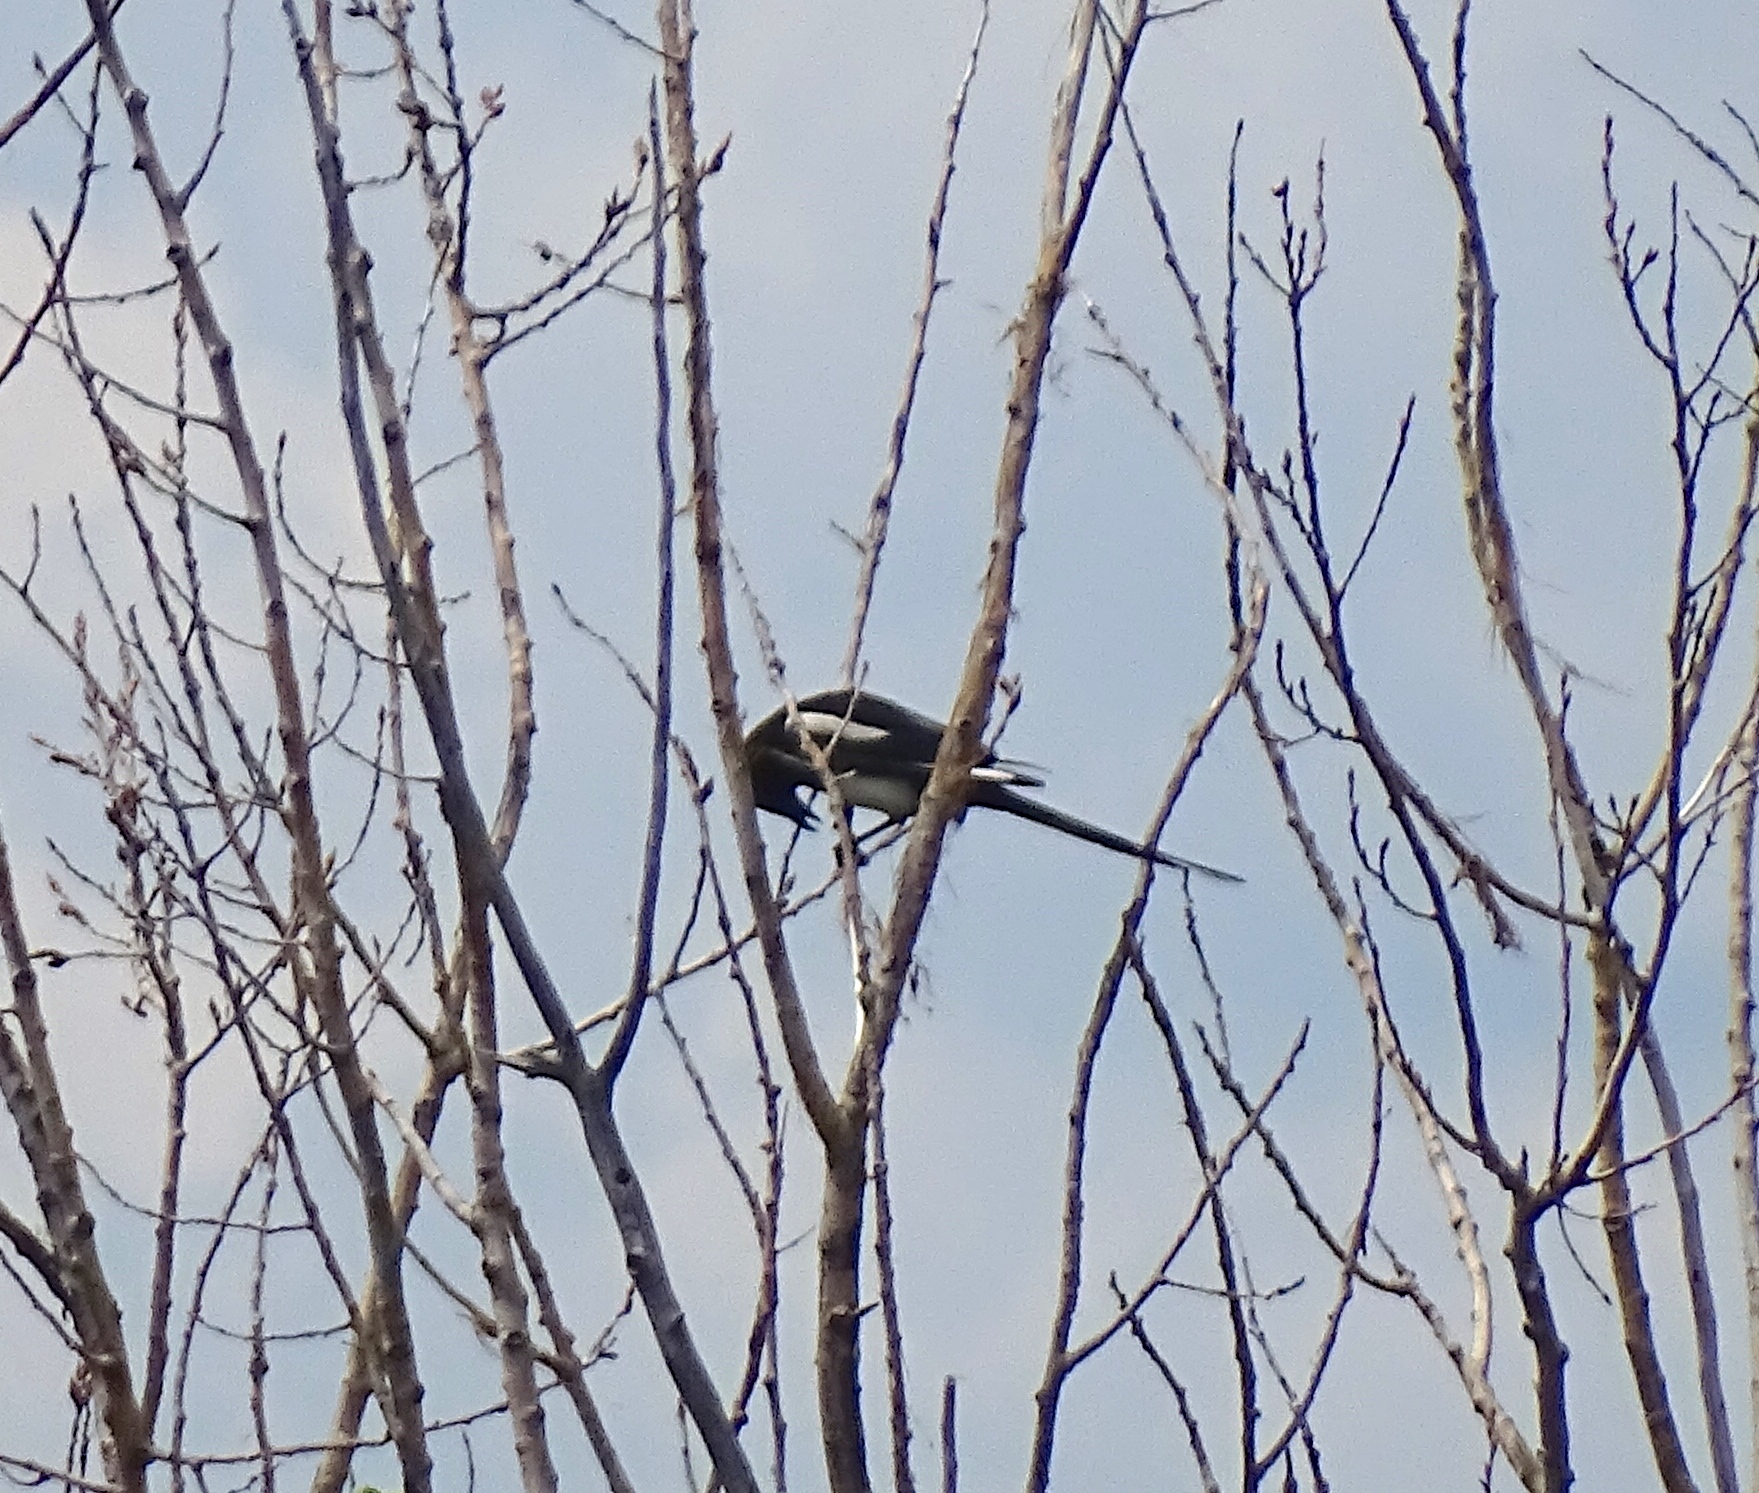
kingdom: Animalia
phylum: Chordata
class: Aves
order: Passeriformes
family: Corvidae
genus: Pica
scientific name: Pica hudsonia
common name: Black-billed magpie
